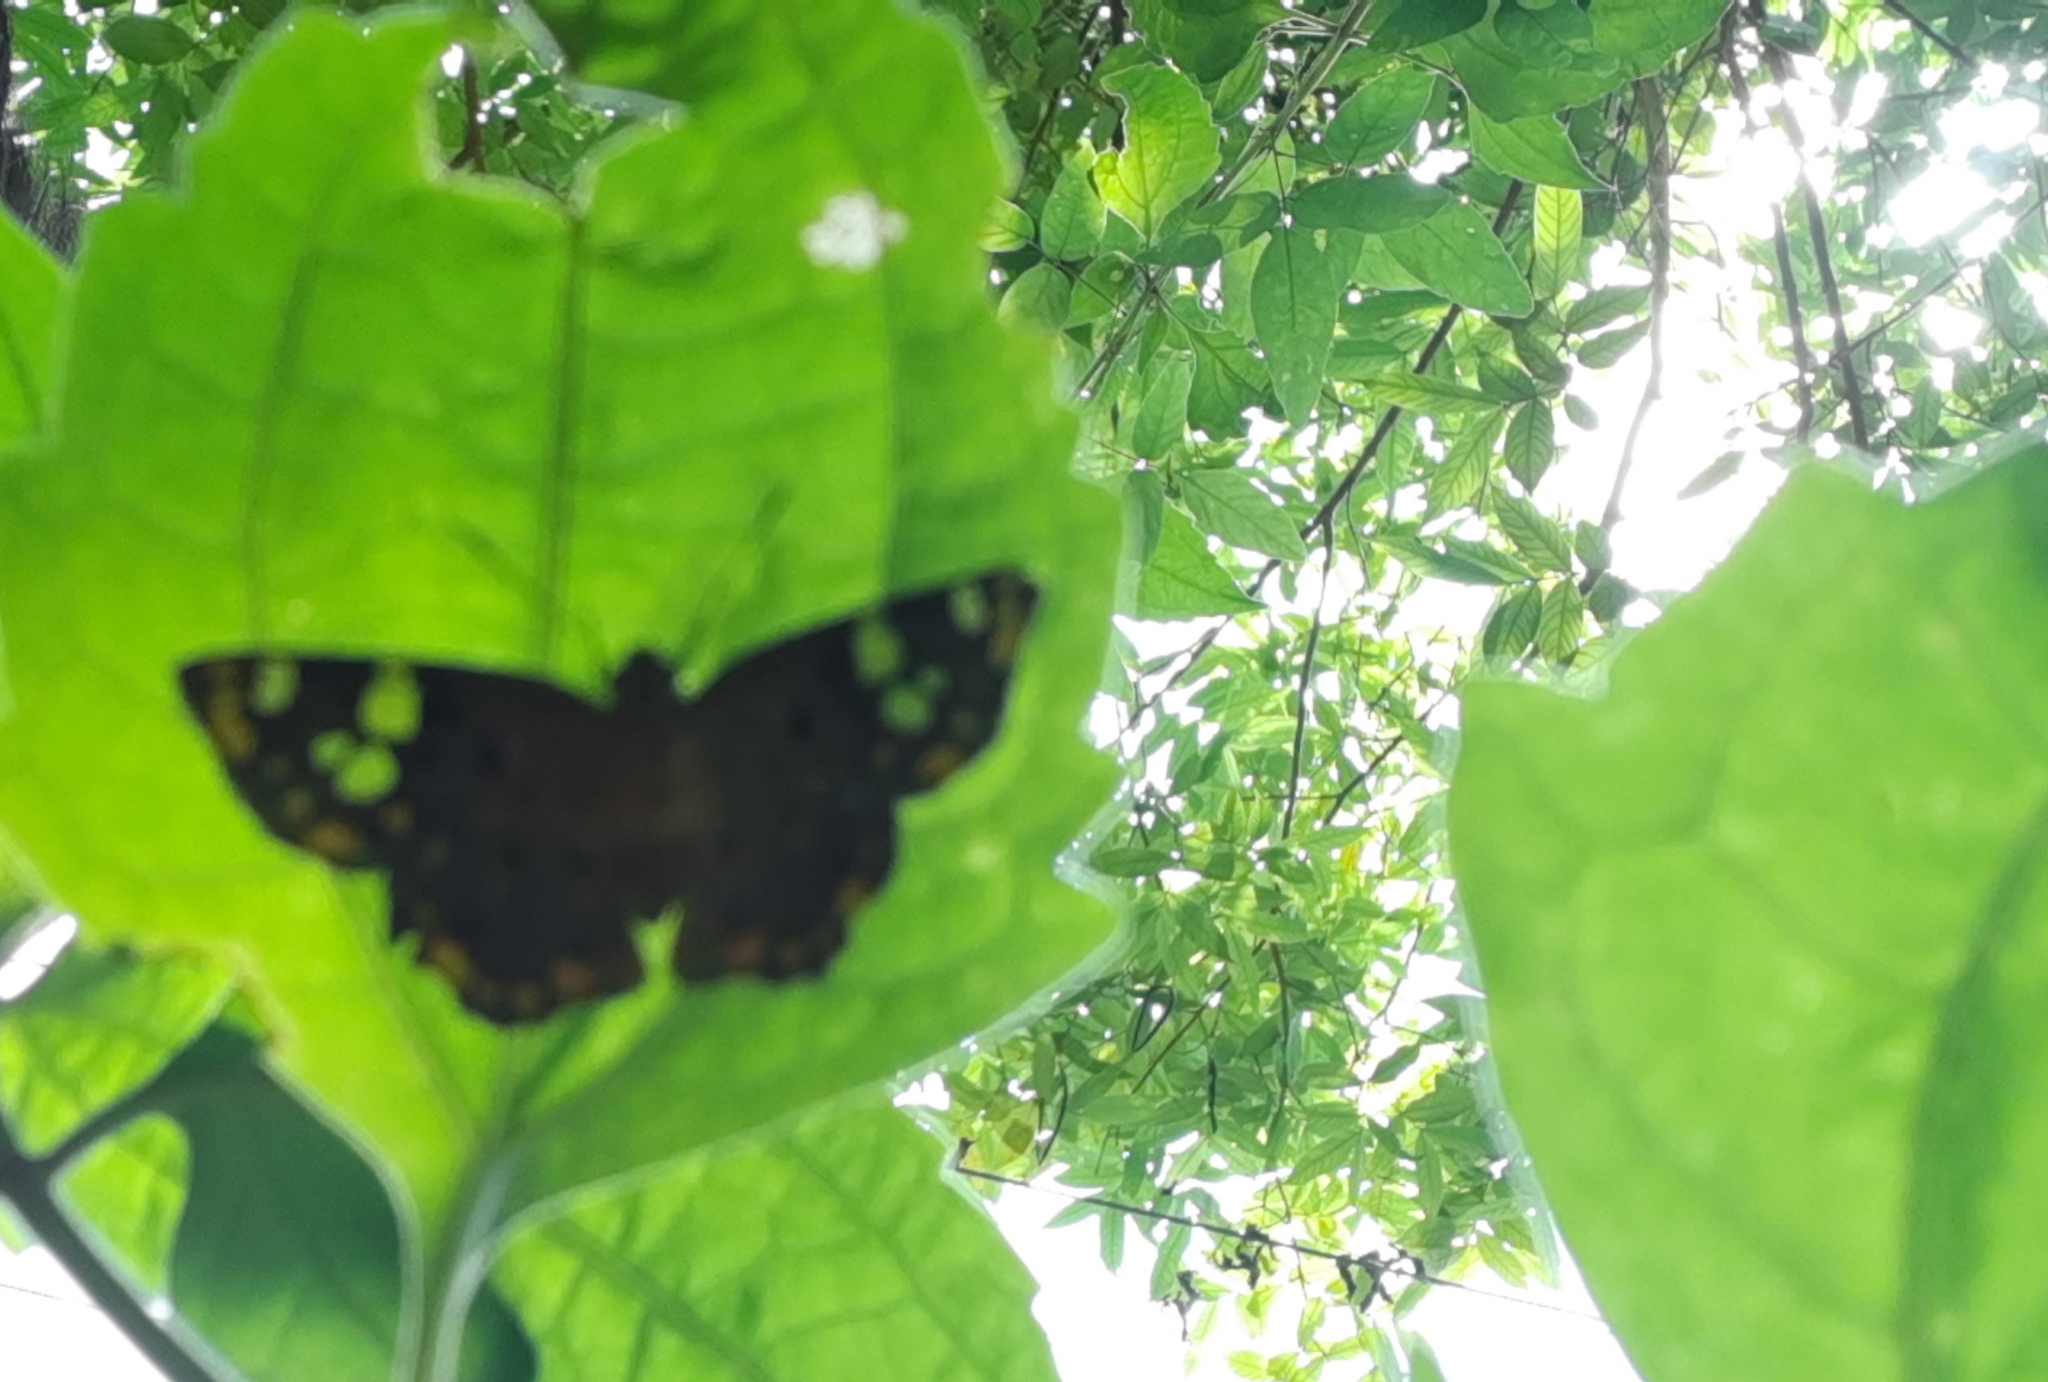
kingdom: Animalia
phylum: Arthropoda
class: Insecta
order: Lepidoptera
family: Hesperiidae
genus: Coladenia
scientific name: Coladenia
